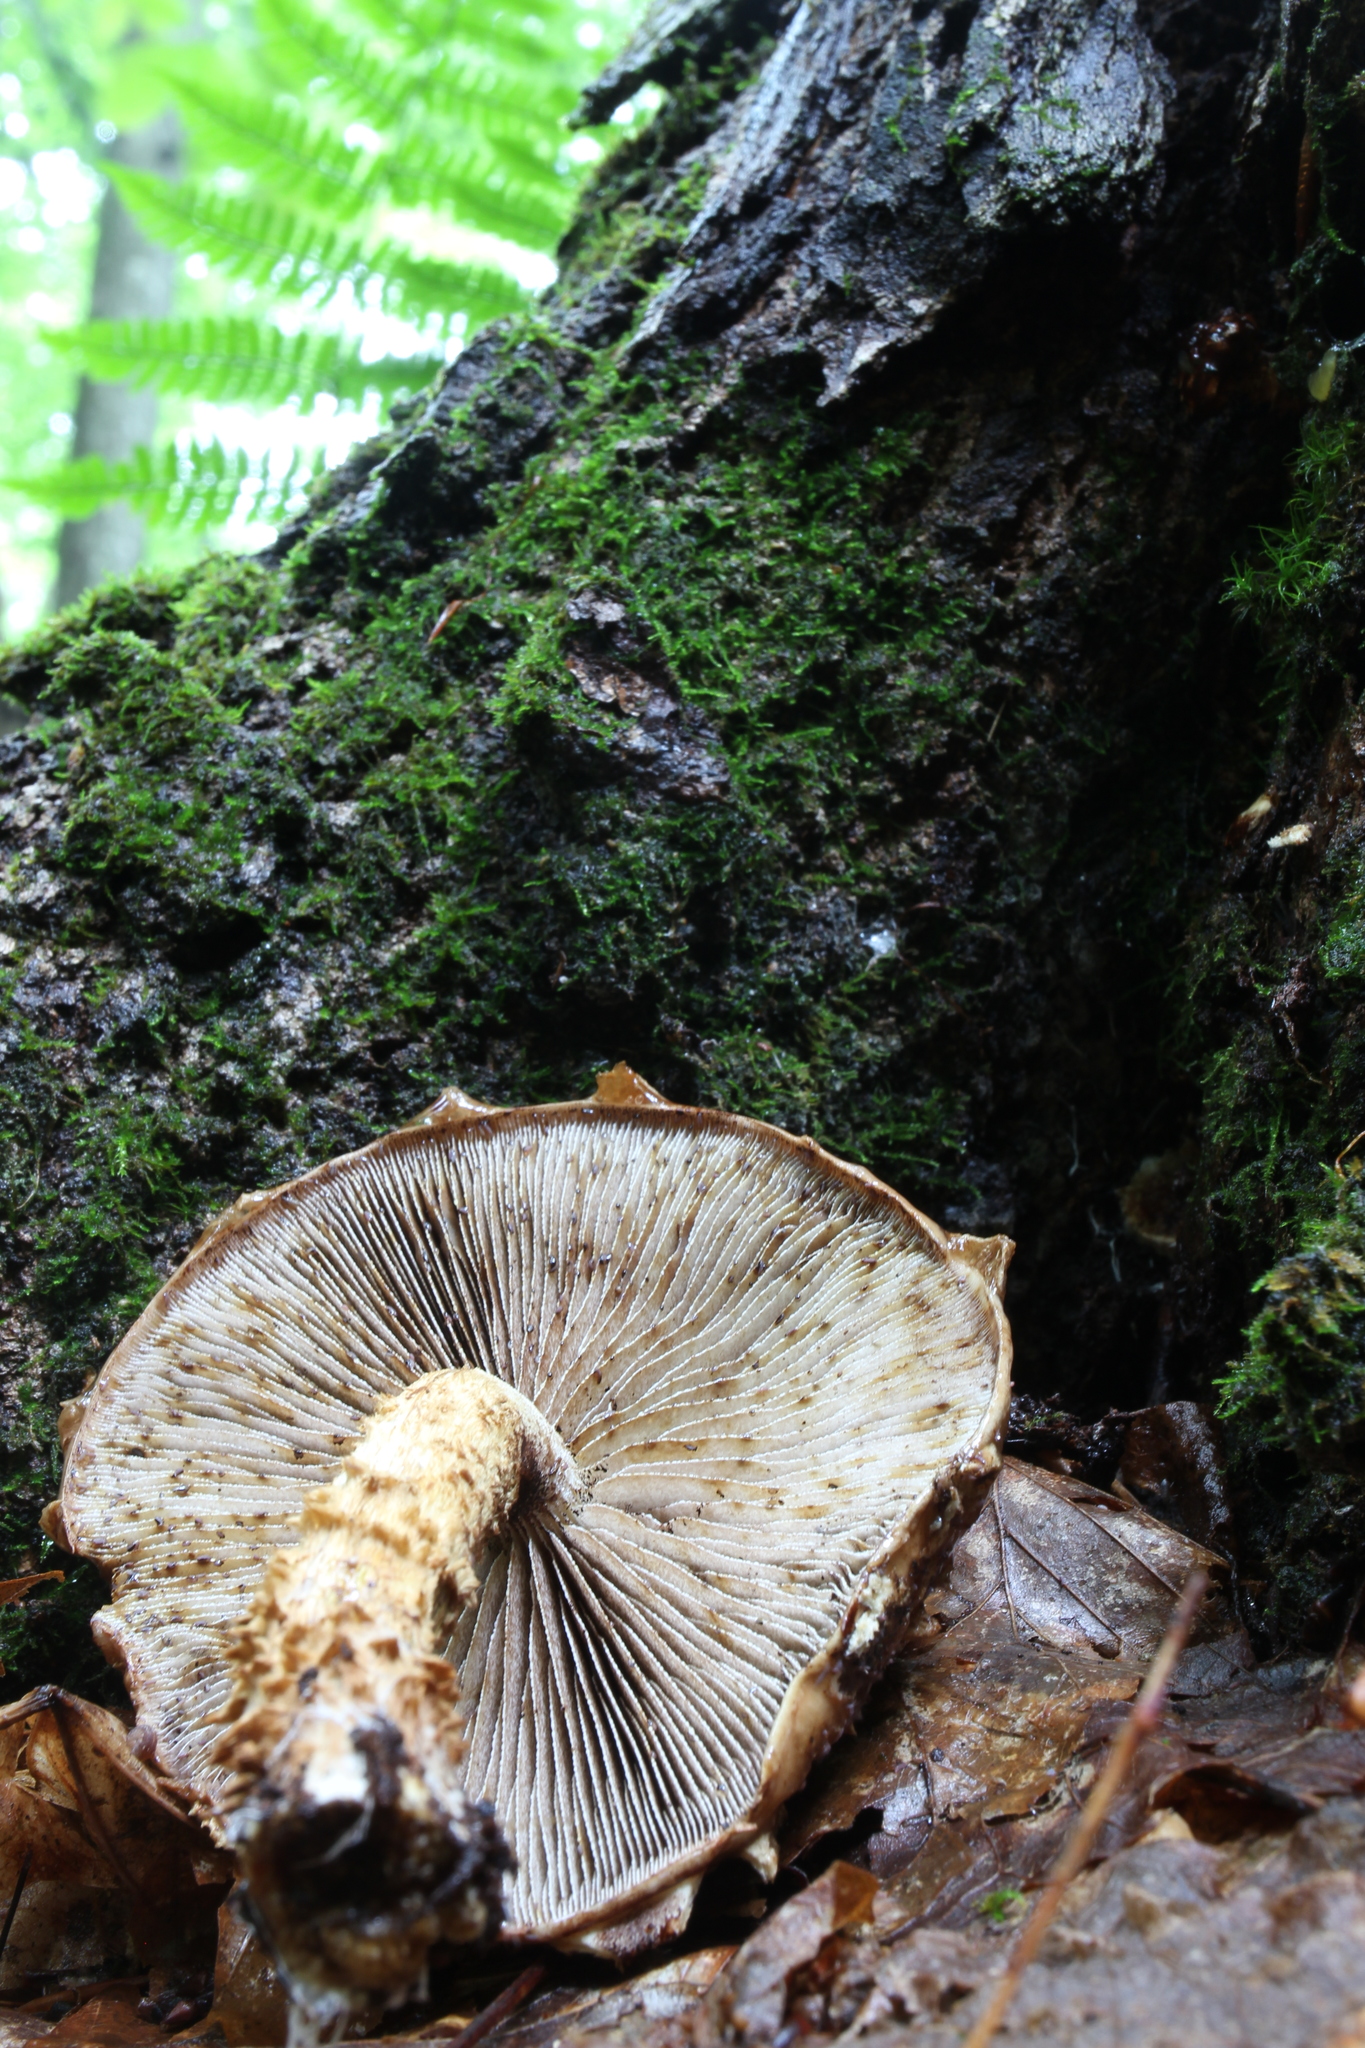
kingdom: Fungi
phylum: Basidiomycota
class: Agaricomycetes
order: Agaricales
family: Tubariaceae
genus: Hemistropharia
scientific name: Hemistropharia albocrenulata
